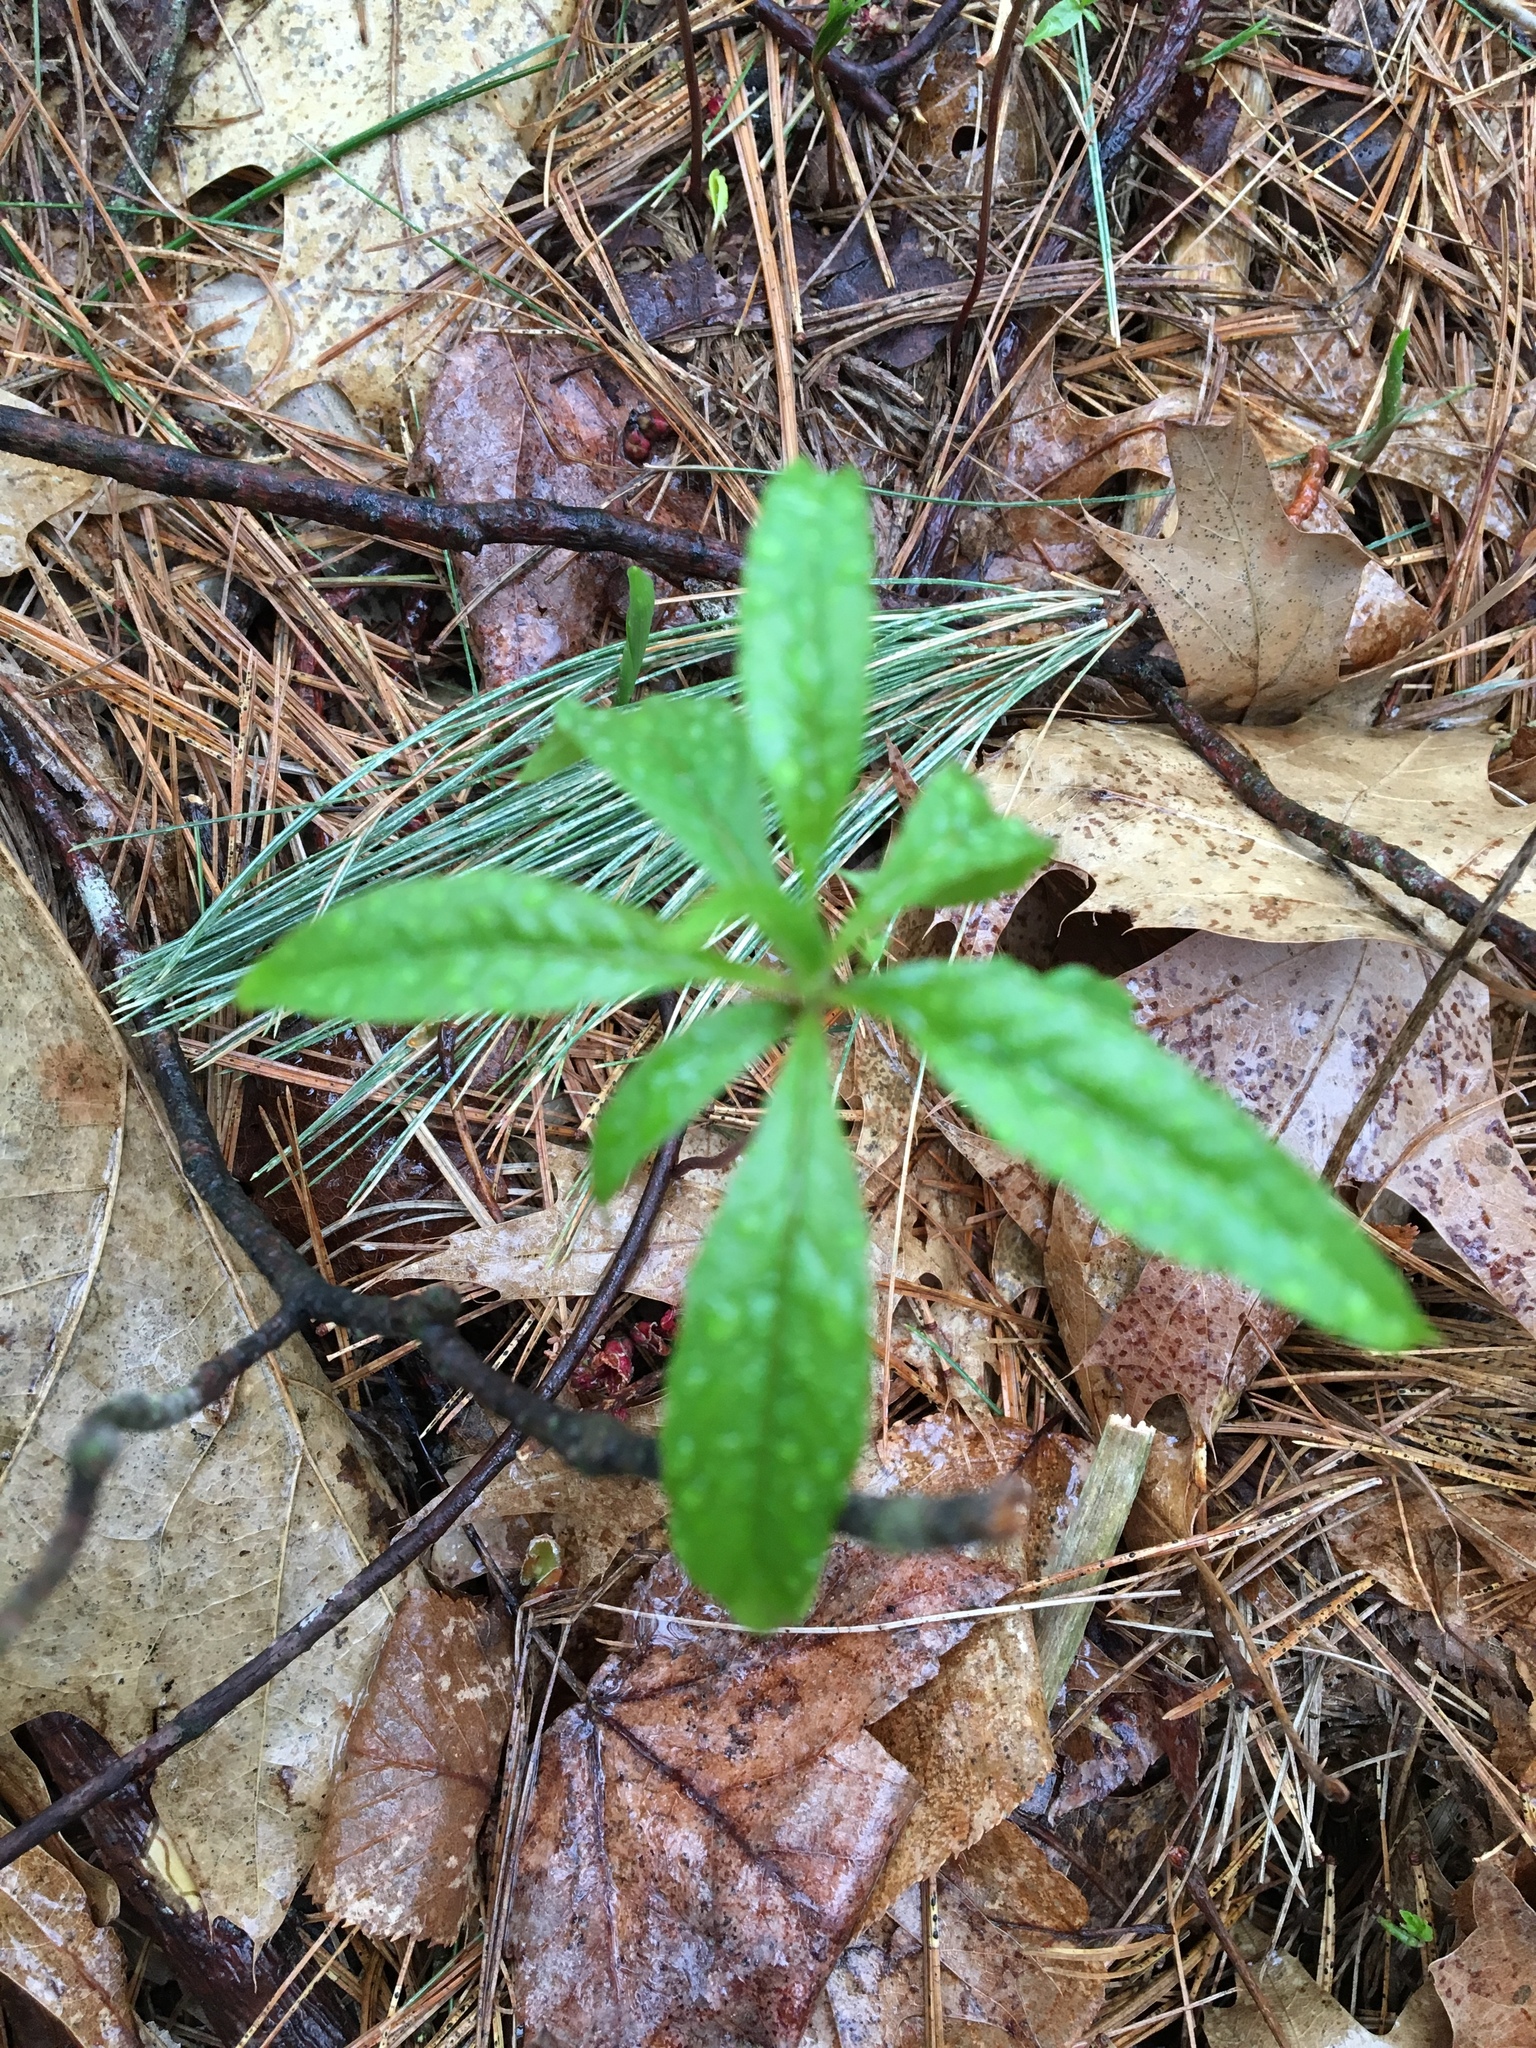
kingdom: Plantae
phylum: Tracheophyta
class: Magnoliopsida
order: Ericales
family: Primulaceae
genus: Lysimachia
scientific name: Lysimachia borealis
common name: American starflower
